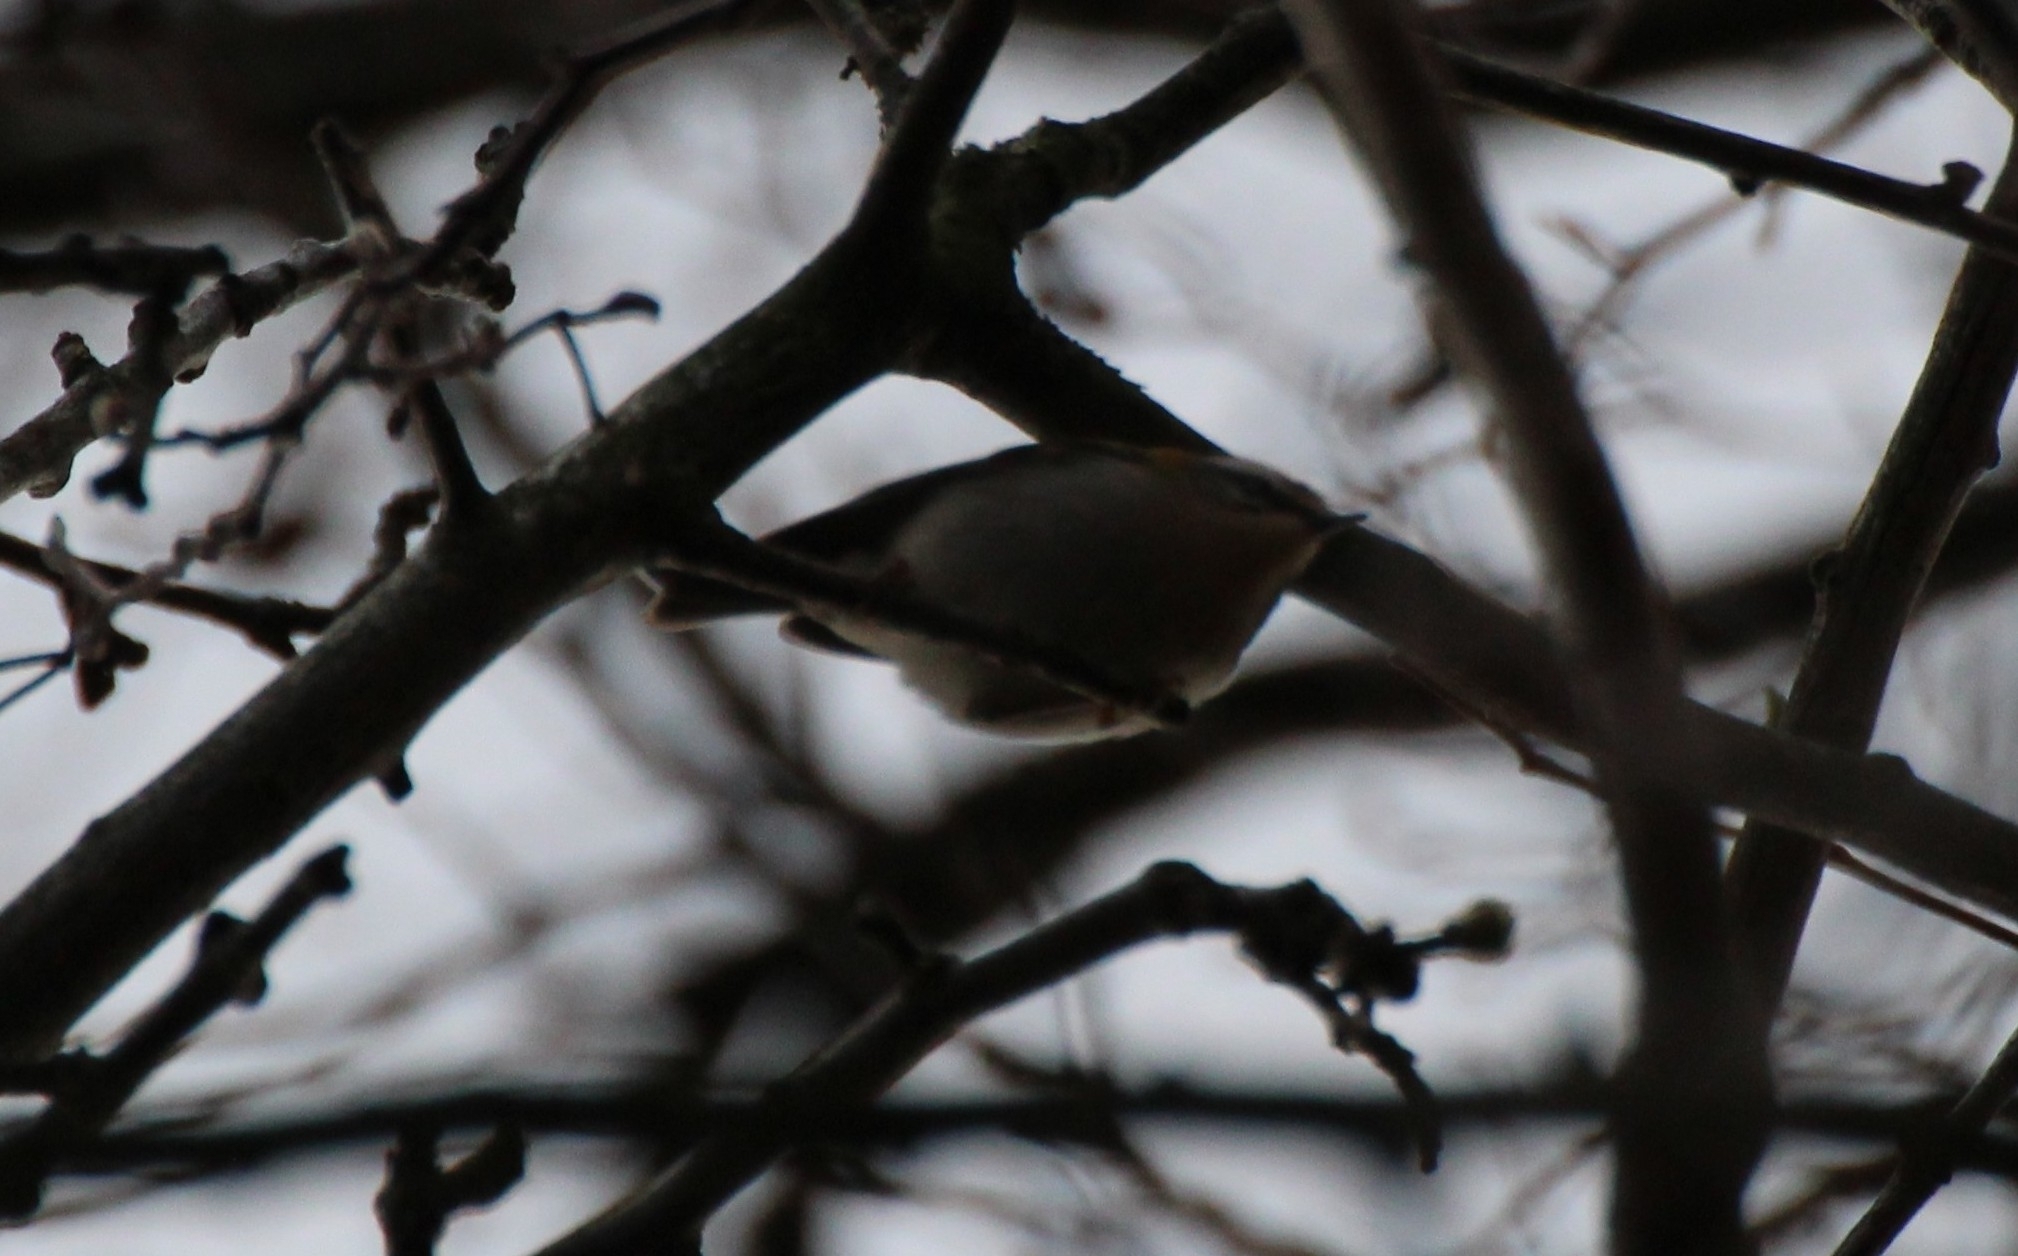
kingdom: Animalia
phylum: Chordata
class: Aves
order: Passeriformes
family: Regulidae
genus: Regulus
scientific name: Regulus ignicapilla
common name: Firecrest
